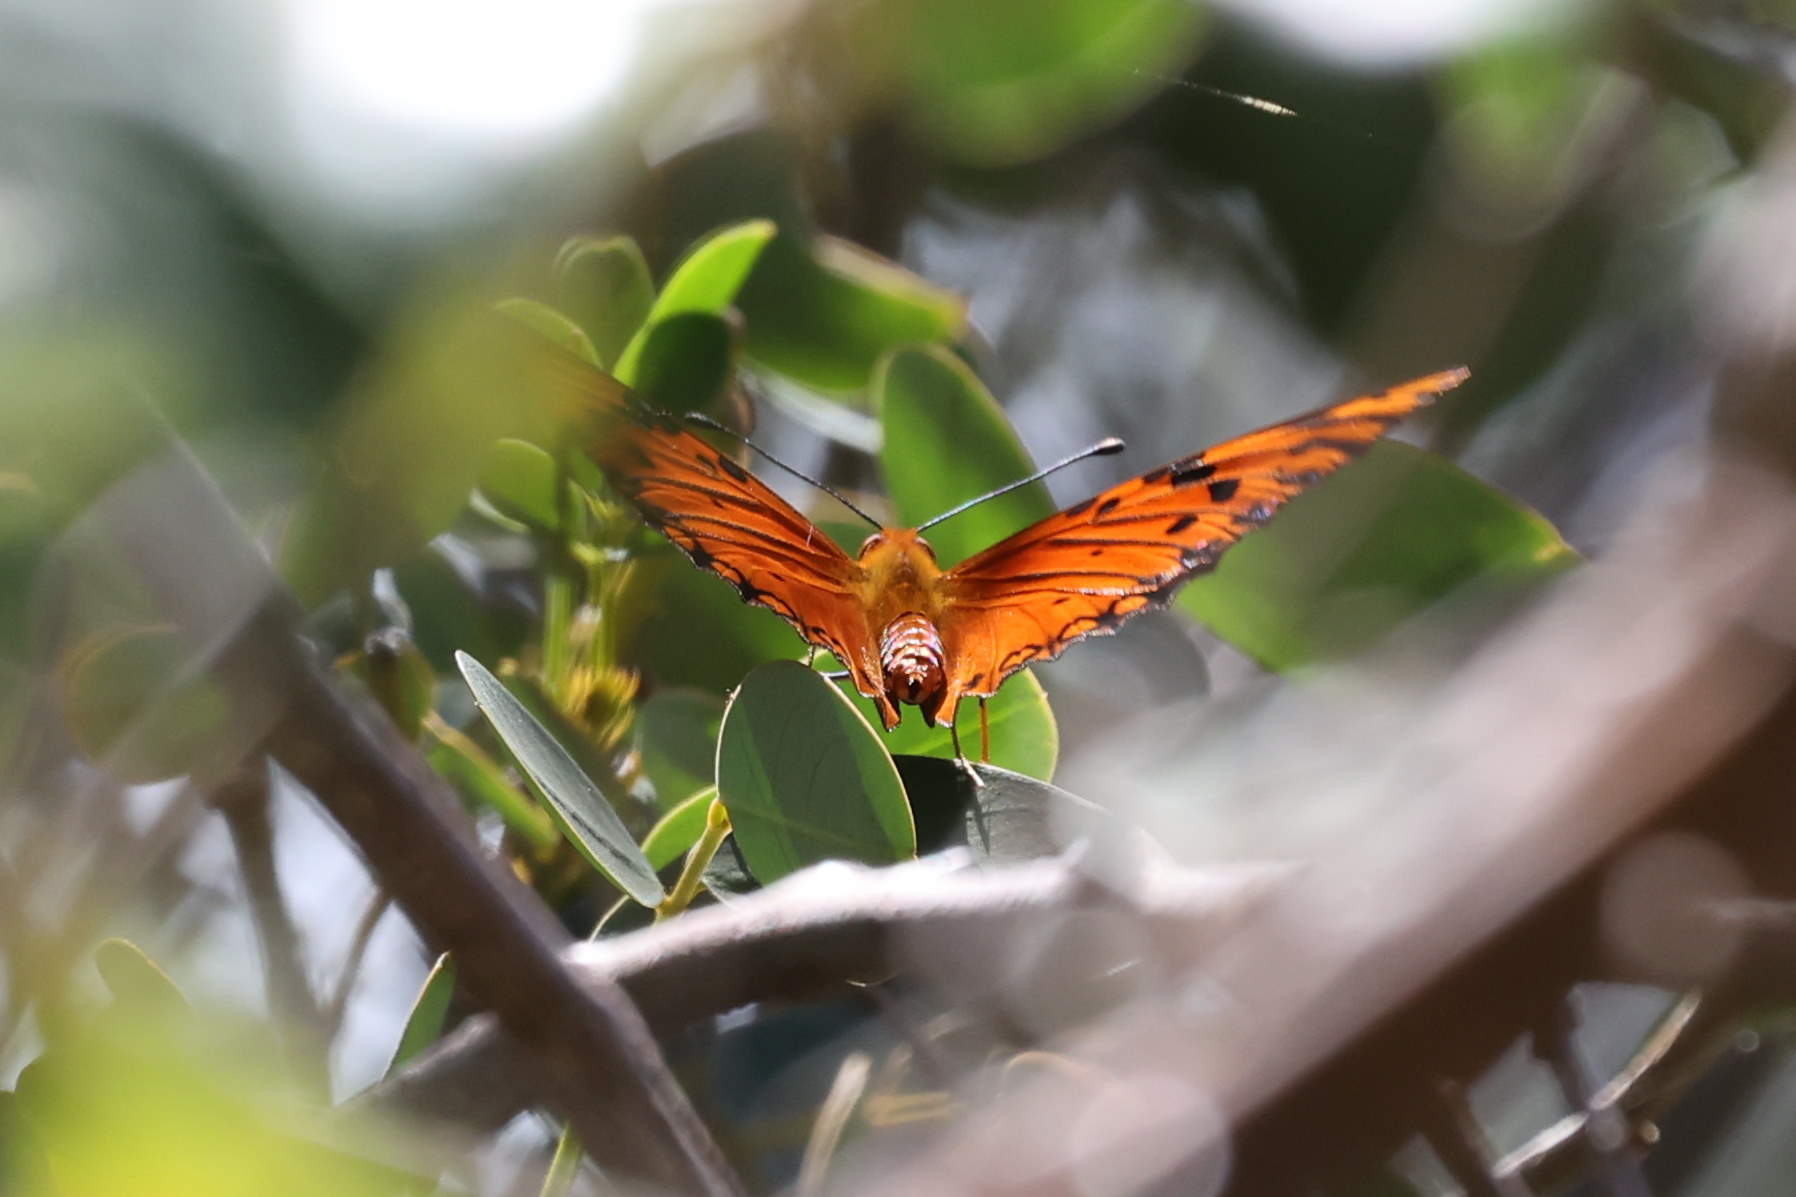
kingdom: Animalia
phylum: Arthropoda
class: Insecta
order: Lepidoptera
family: Nymphalidae
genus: Dione
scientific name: Dione vanillae
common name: Gulf fritillary
